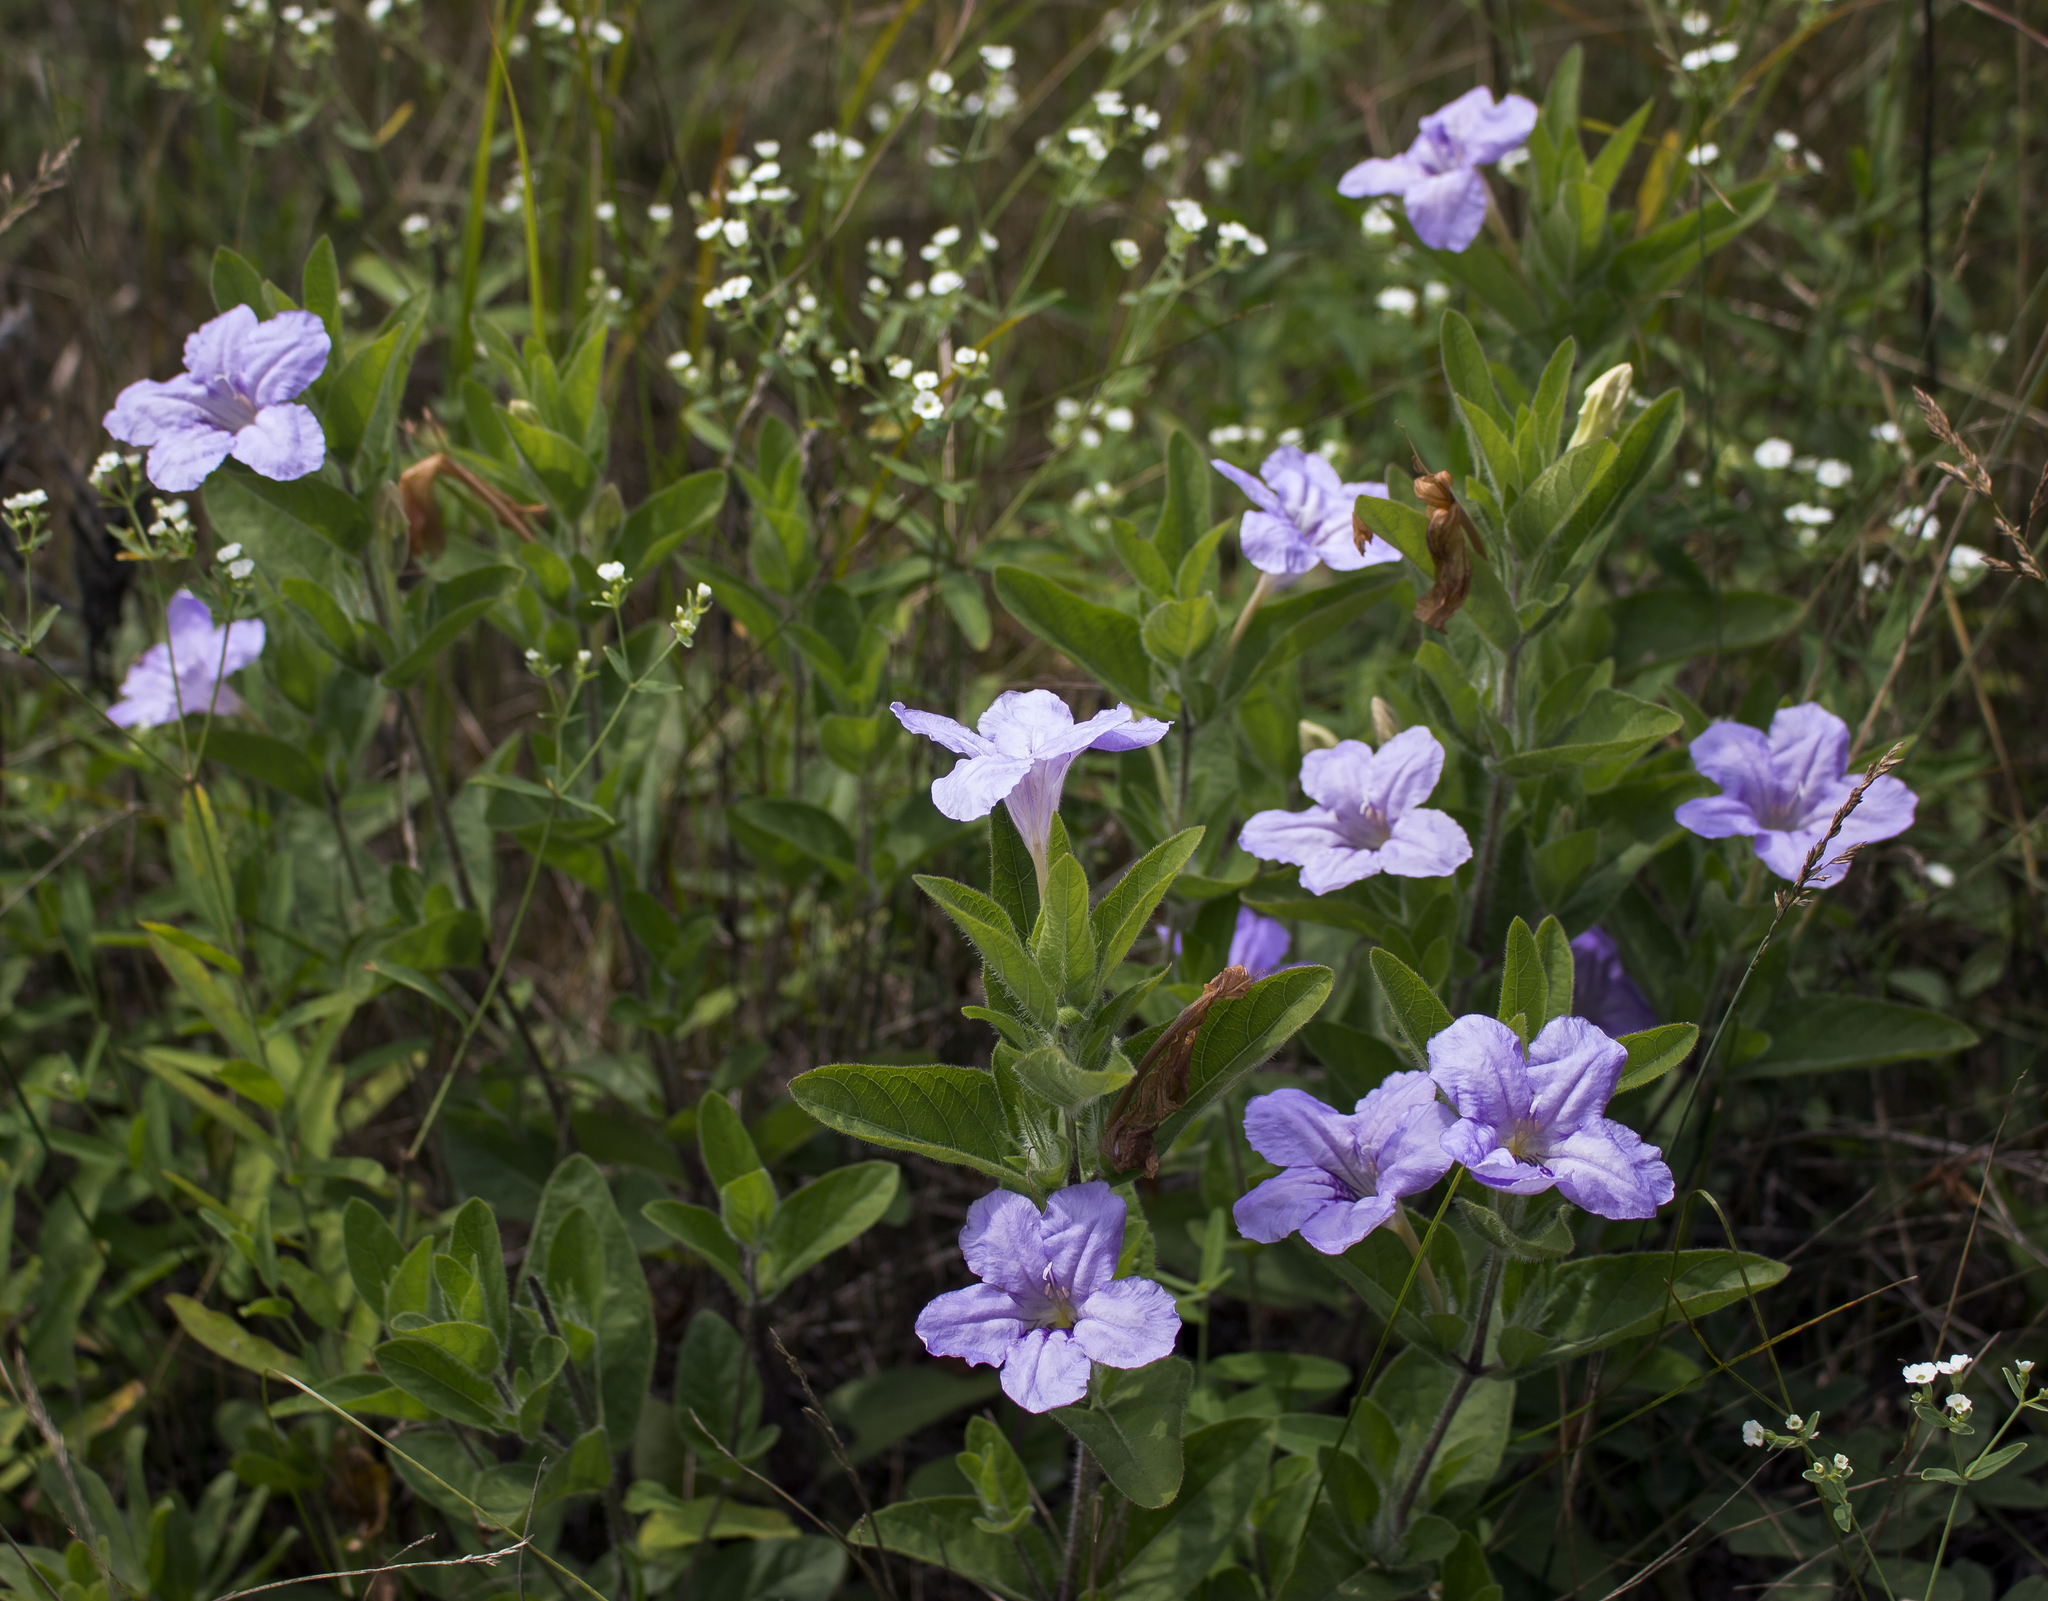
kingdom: Plantae
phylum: Tracheophyta
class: Magnoliopsida
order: Lamiales
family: Acanthaceae
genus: Ruellia
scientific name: Ruellia humilis
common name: Fringe-leaf ruellia
